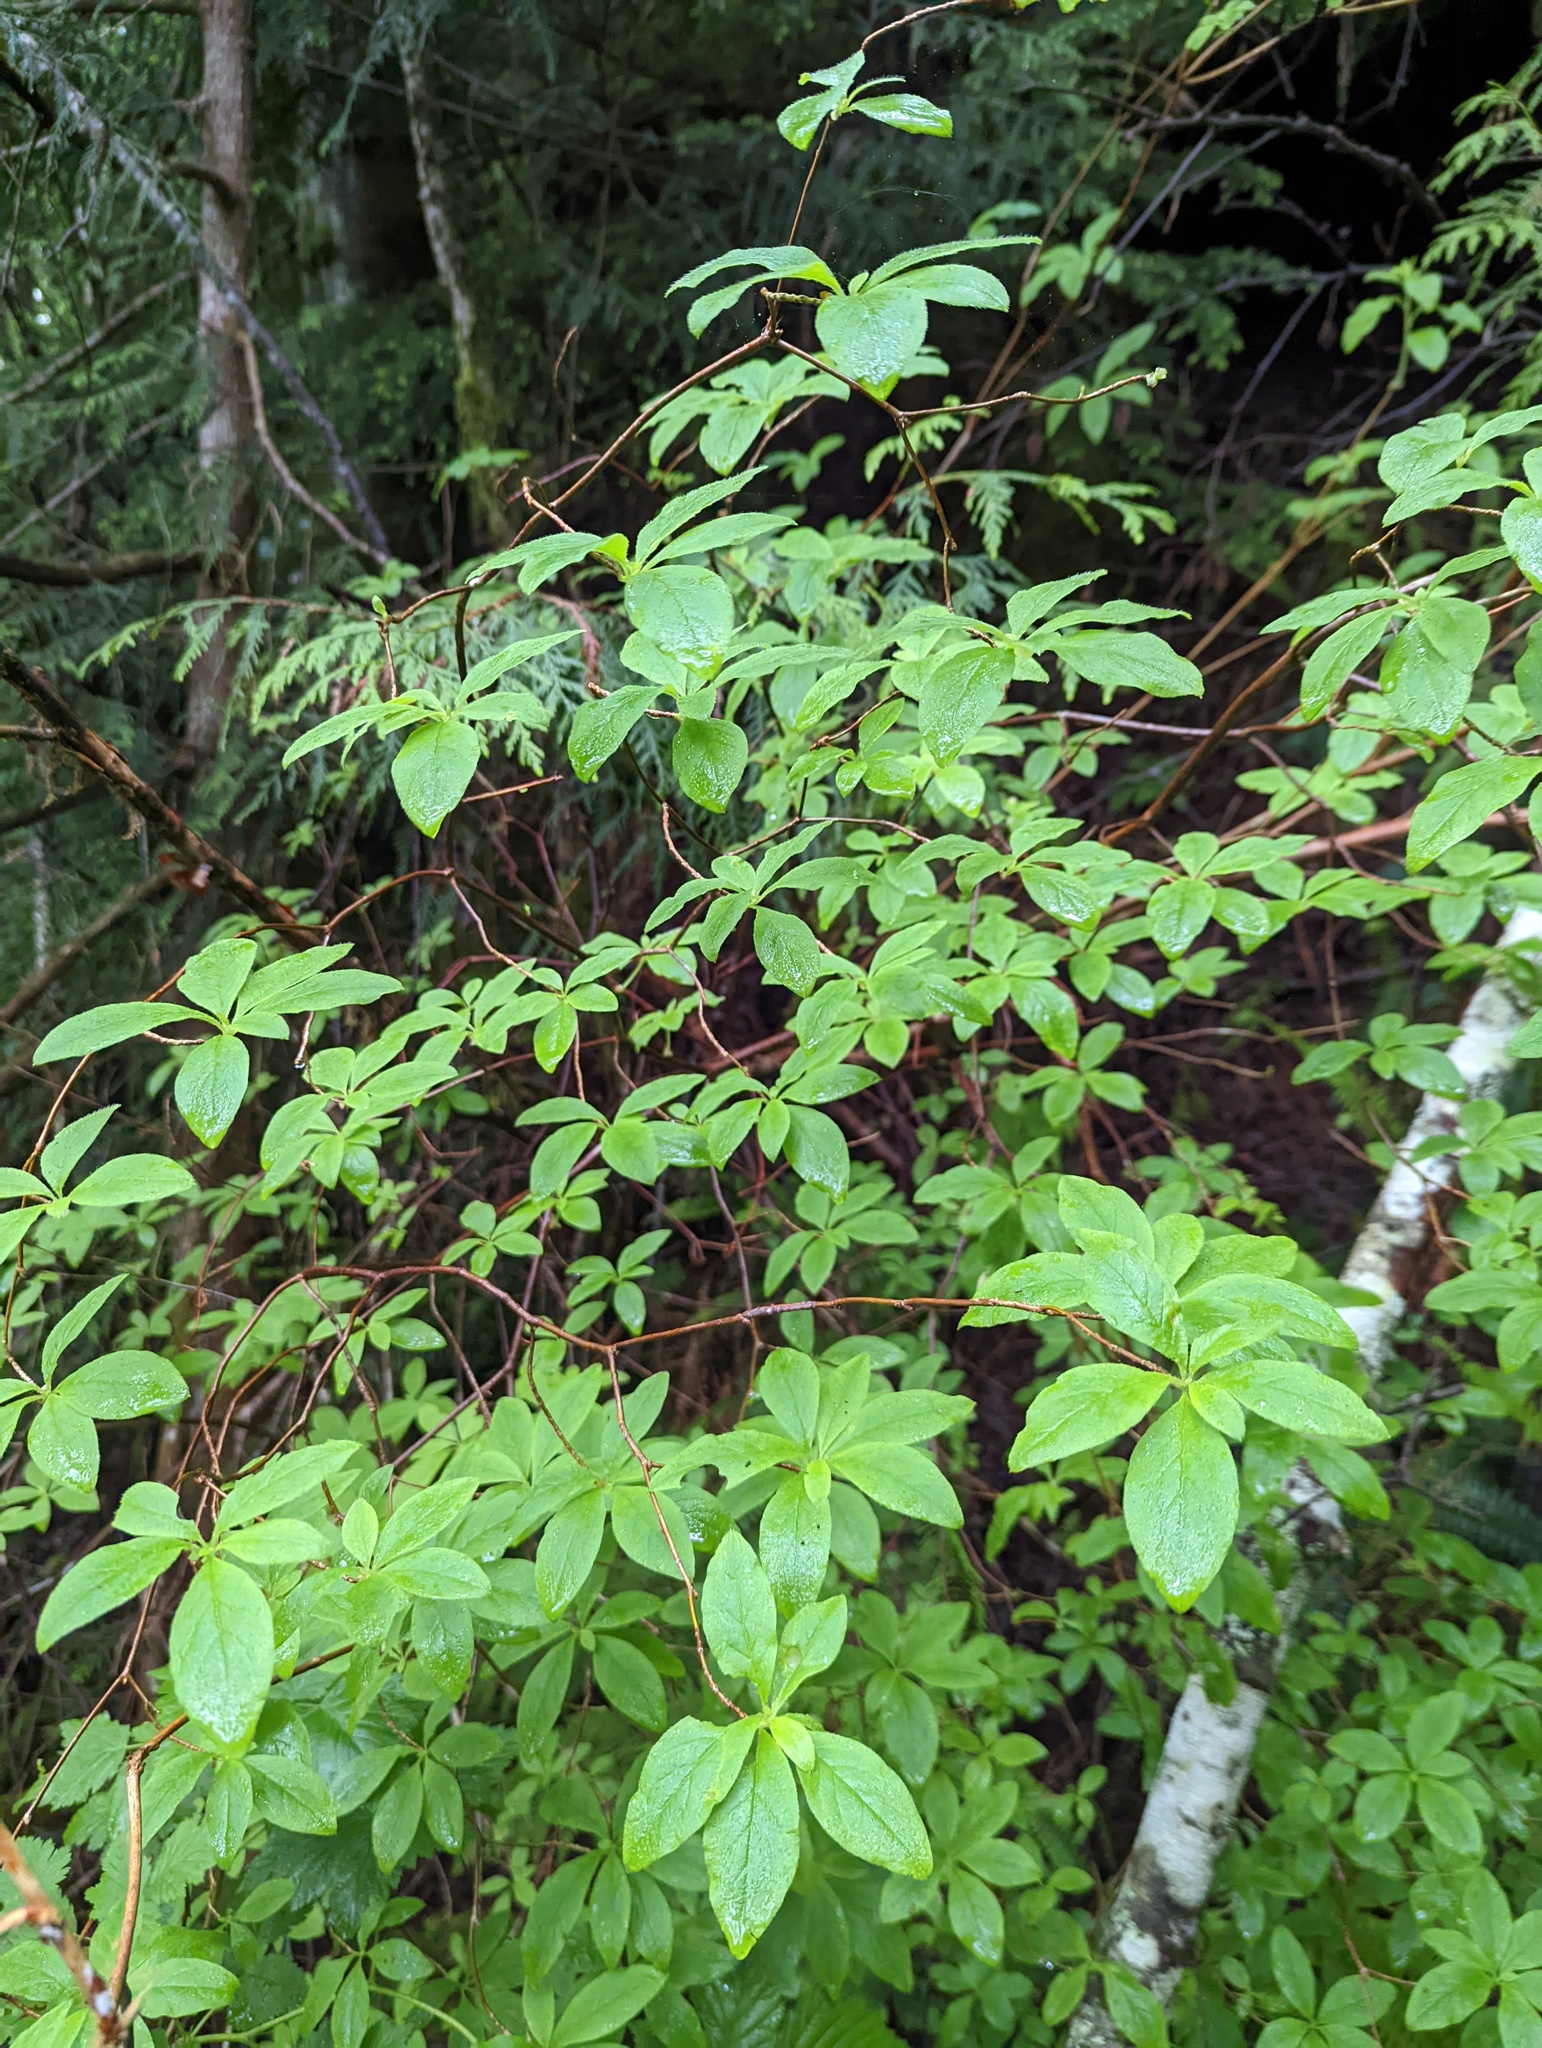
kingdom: Plantae
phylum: Tracheophyta
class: Magnoliopsida
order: Ericales
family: Ericaceae
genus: Rhododendron
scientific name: Rhododendron menziesii
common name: Pacific menziesia
